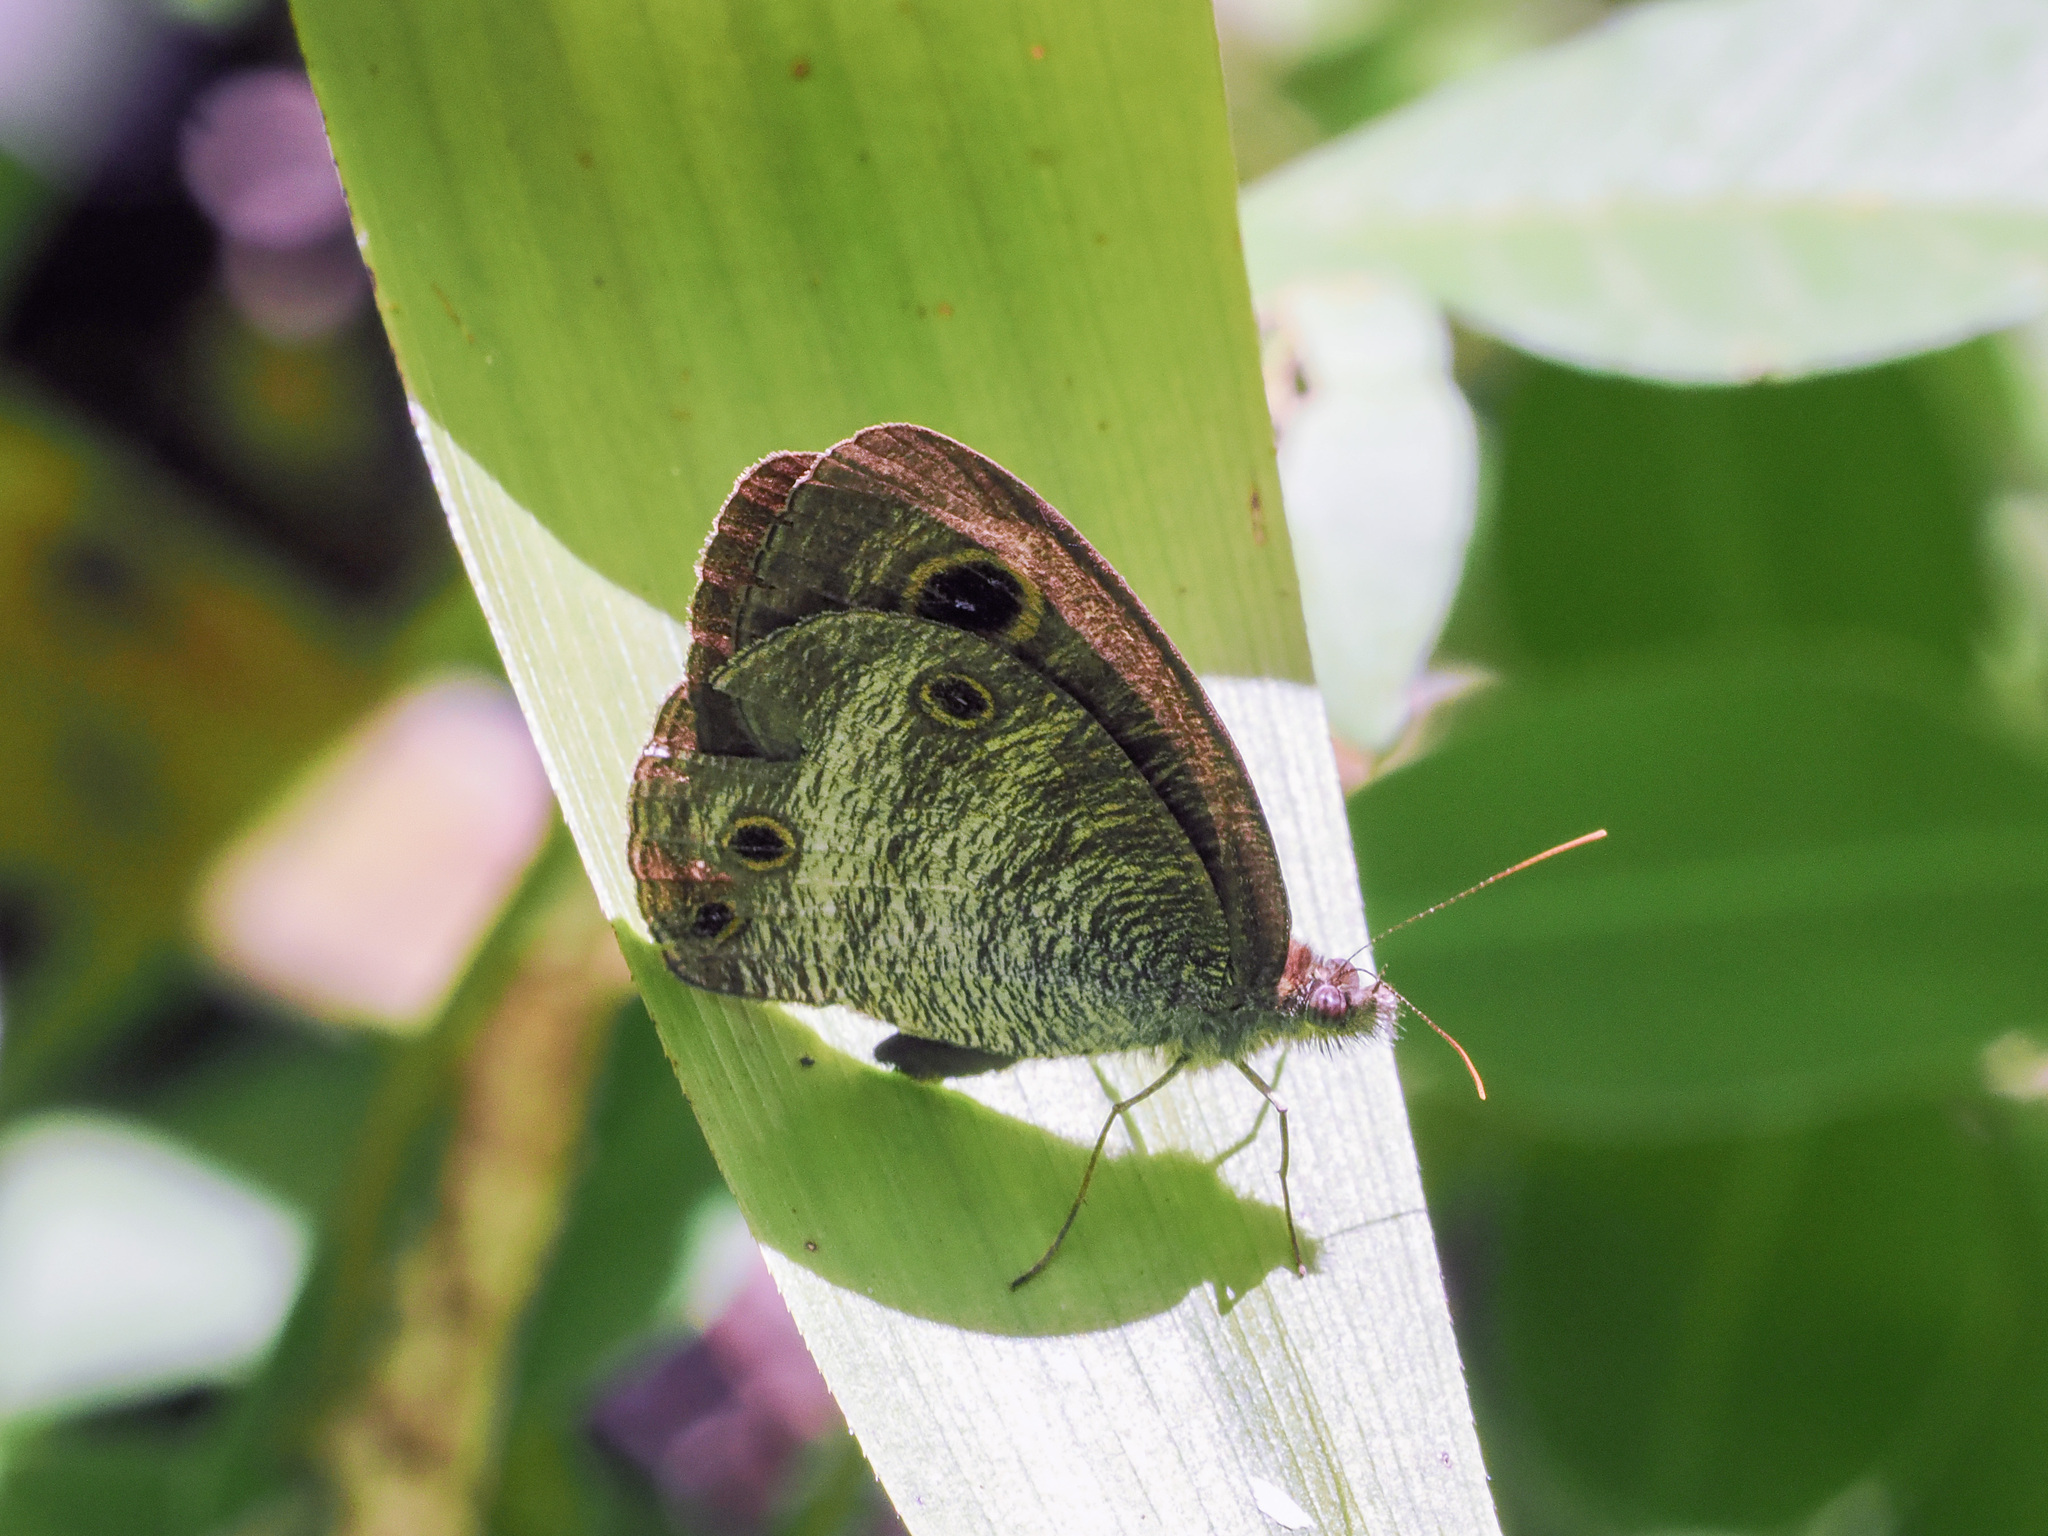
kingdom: Animalia
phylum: Arthropoda
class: Insecta
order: Lepidoptera
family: Nymphalidae
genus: Ypthima
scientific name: Ypthima pandocus
